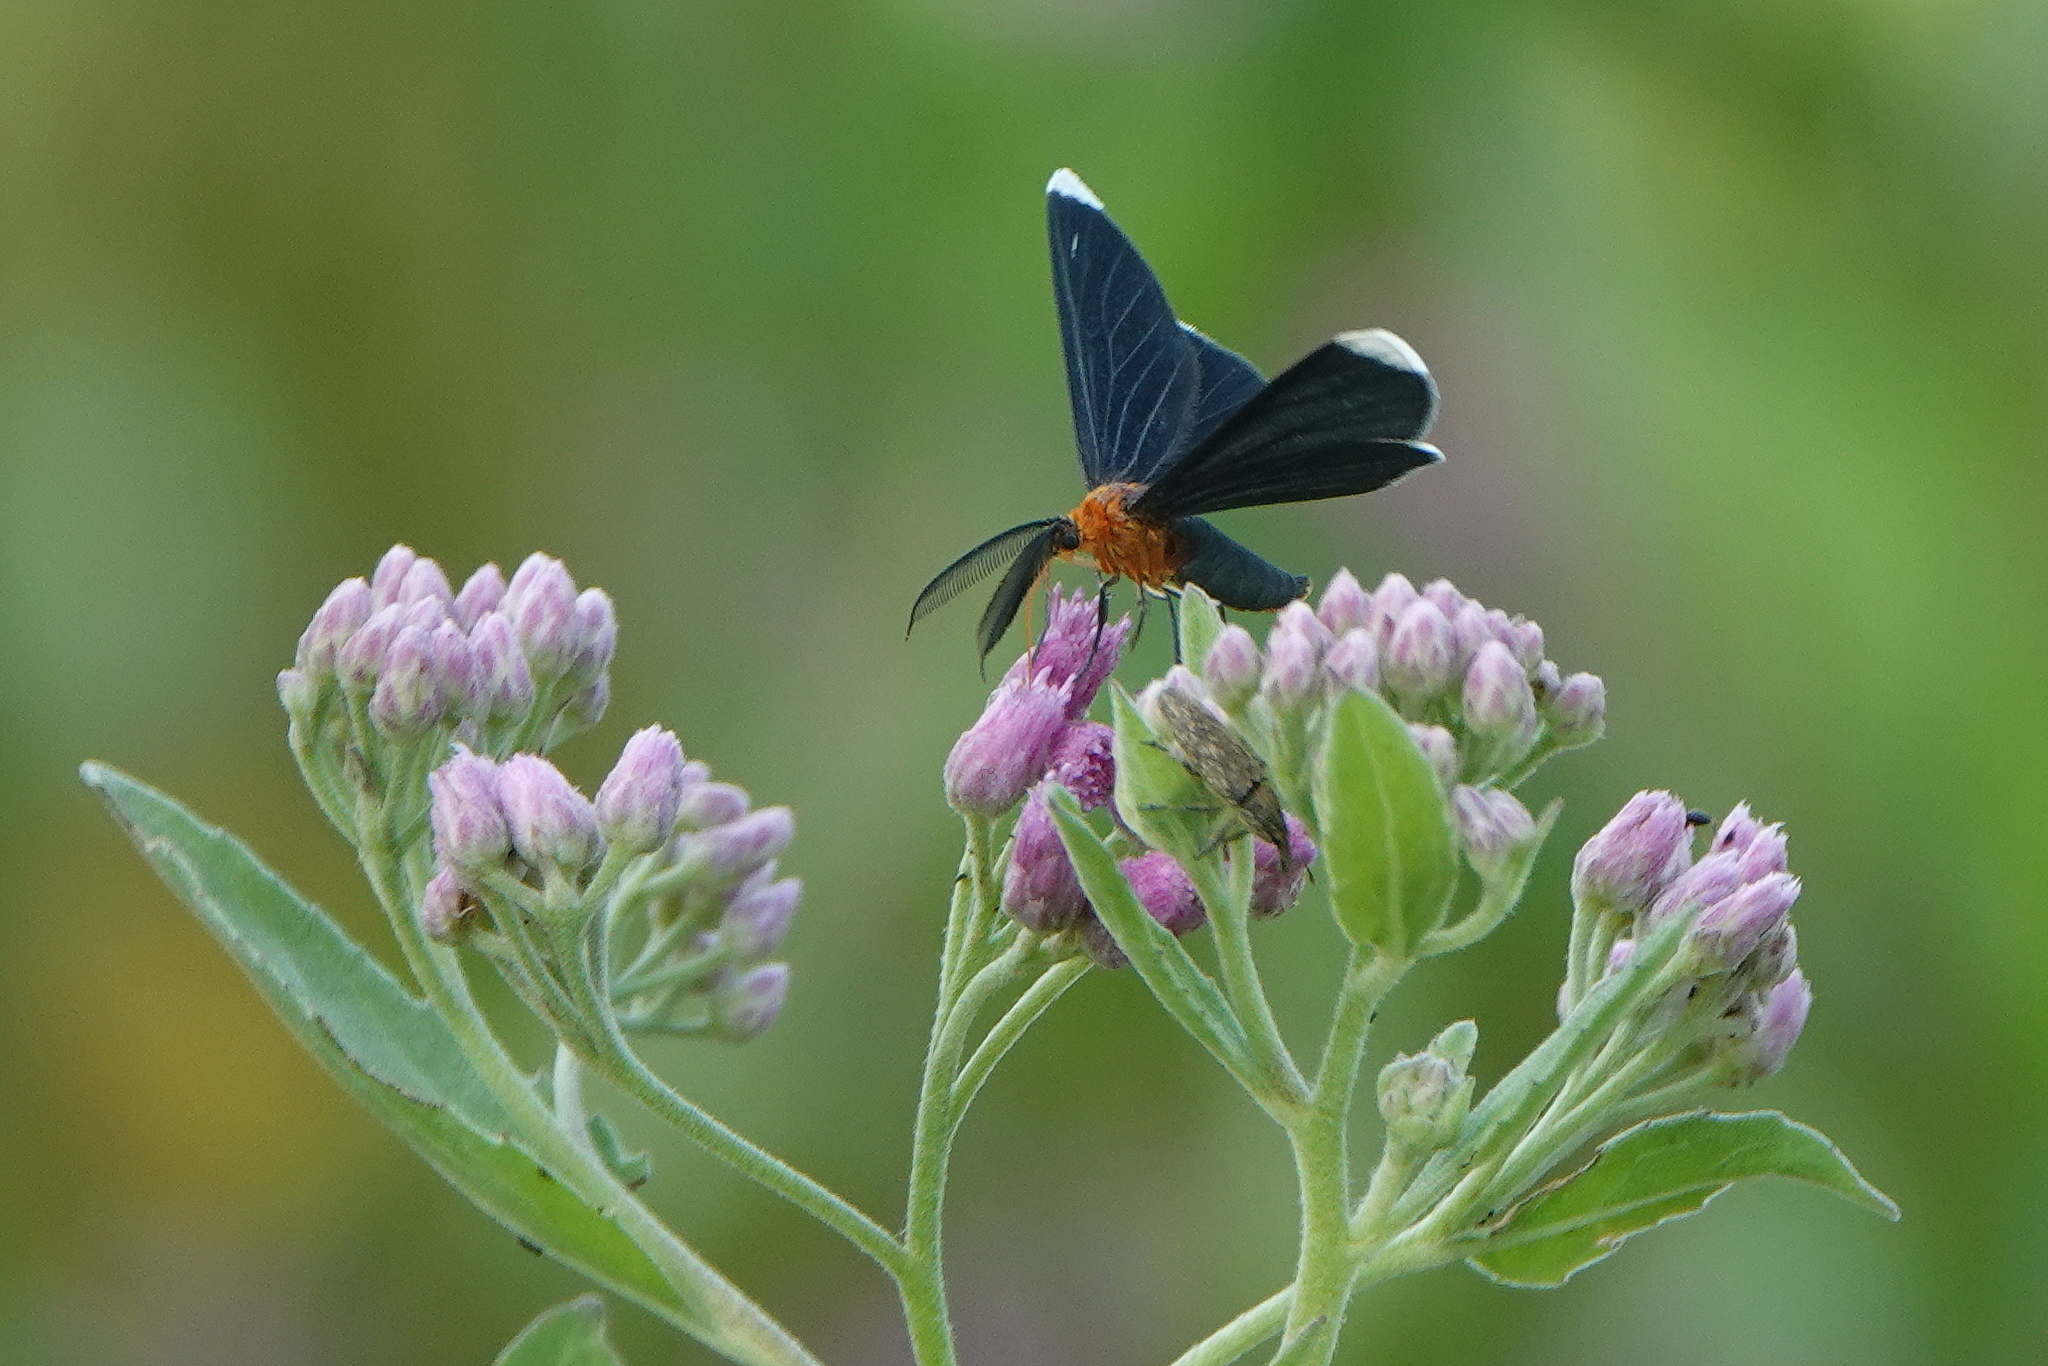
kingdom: Animalia
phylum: Arthropoda
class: Insecta
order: Lepidoptera
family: Geometridae
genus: Melanchroia
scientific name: Melanchroia chephise
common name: White-tipped black
